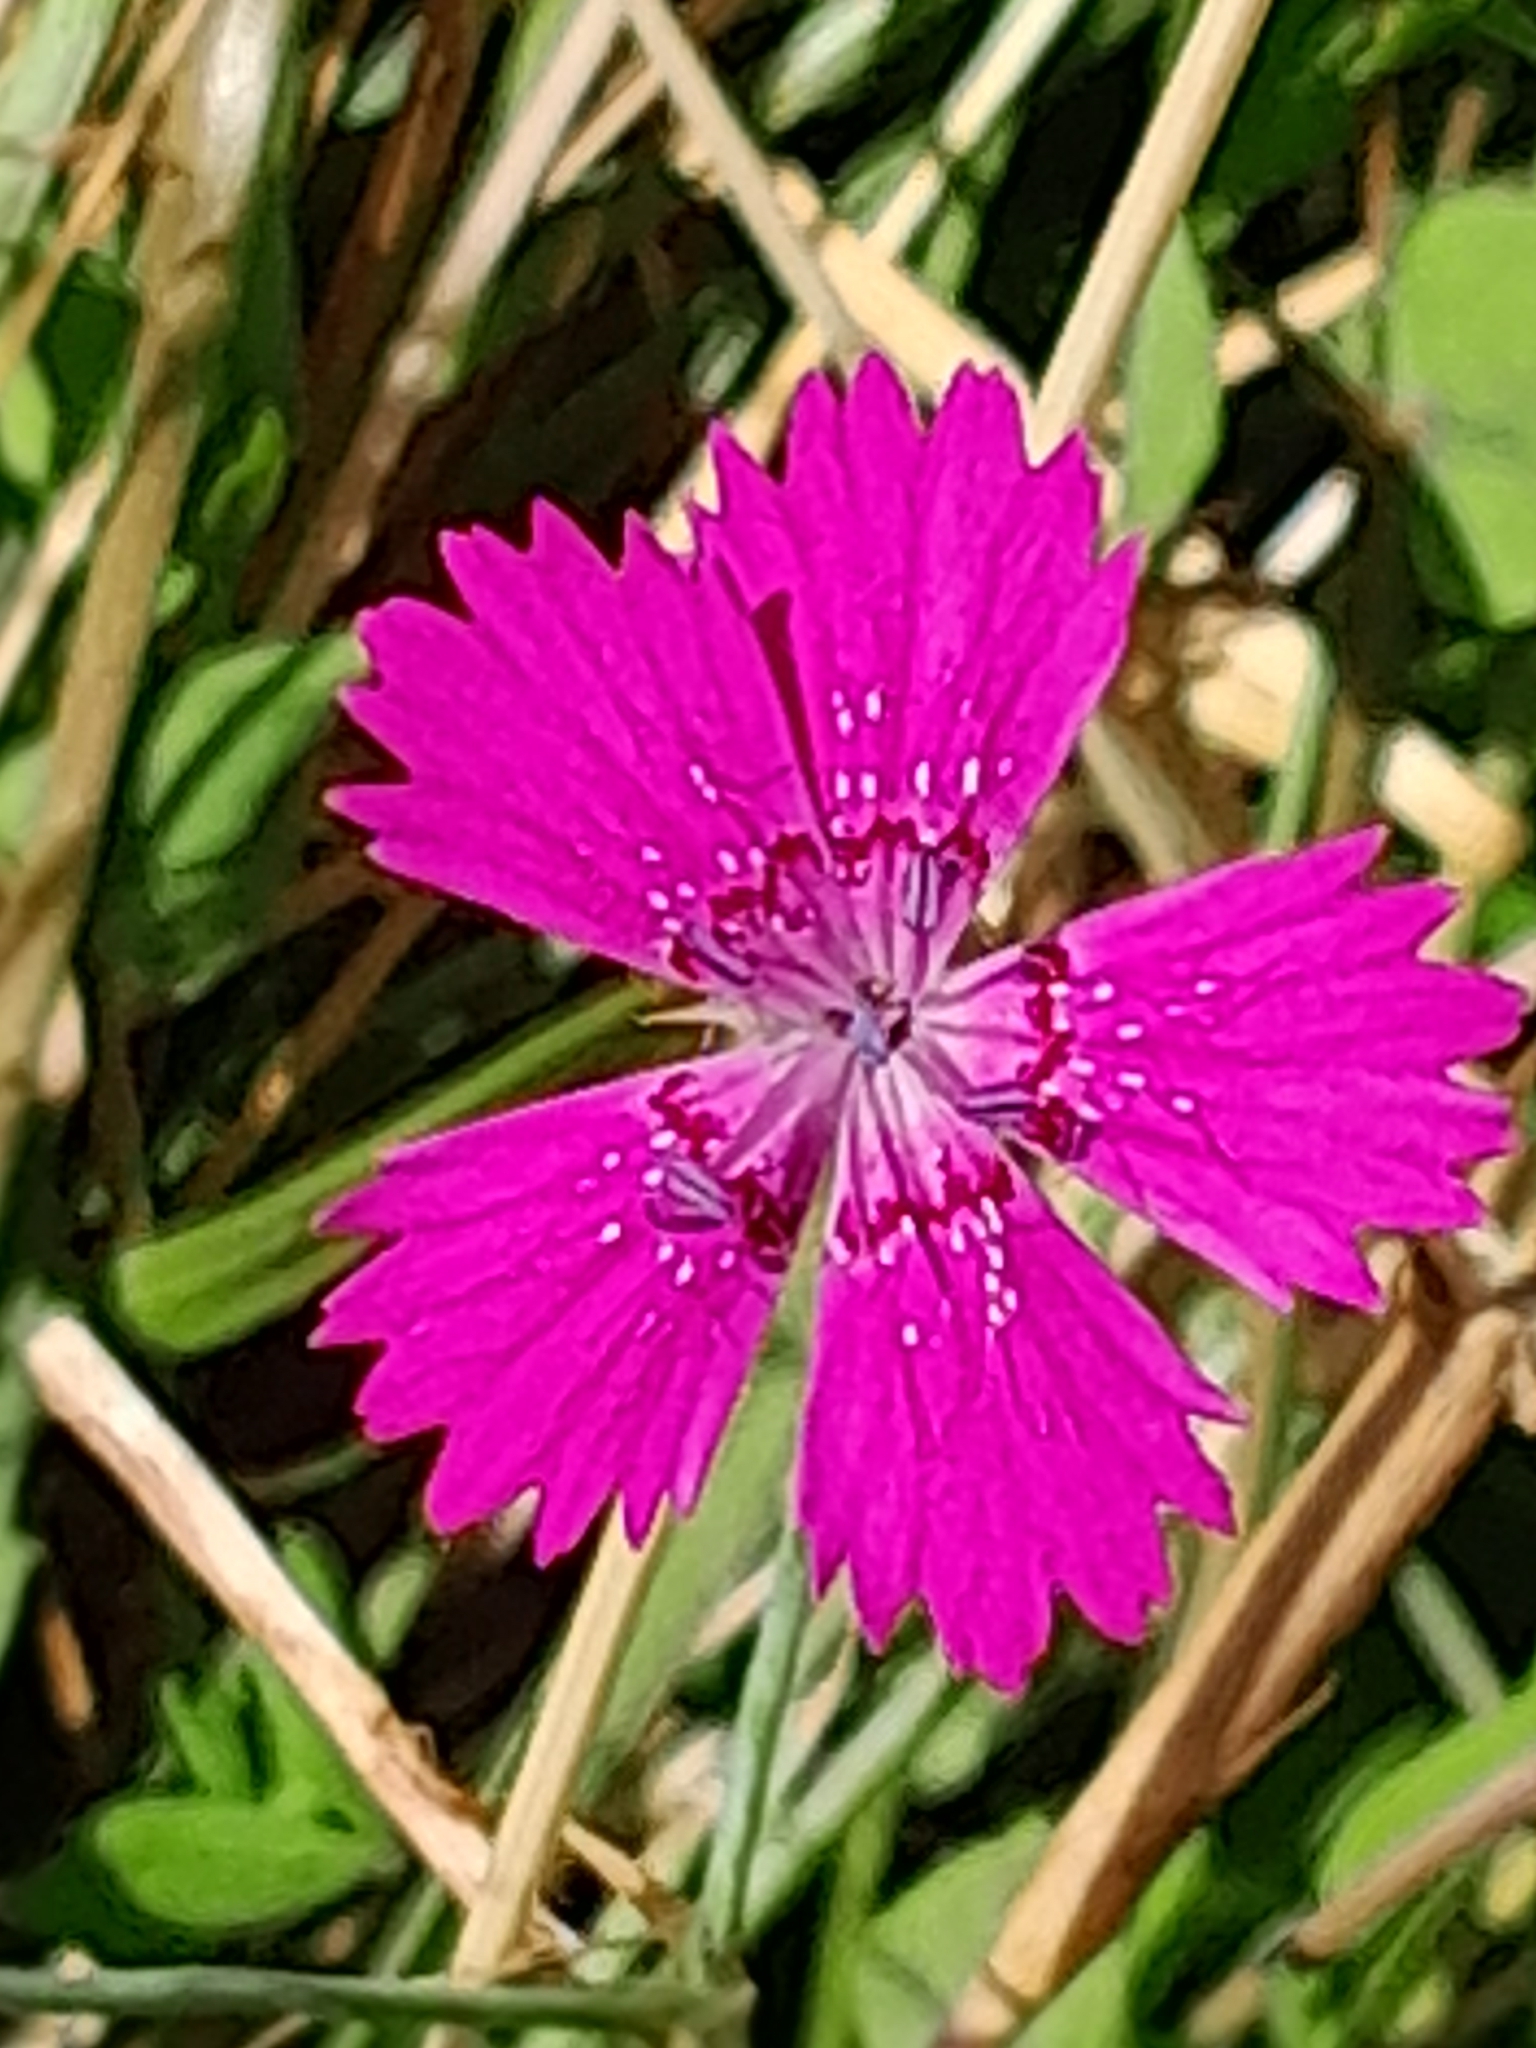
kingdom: Plantae
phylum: Tracheophyta
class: Magnoliopsida
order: Caryophyllales
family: Caryophyllaceae
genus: Dianthus
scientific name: Dianthus deltoides
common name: Maiden pink
